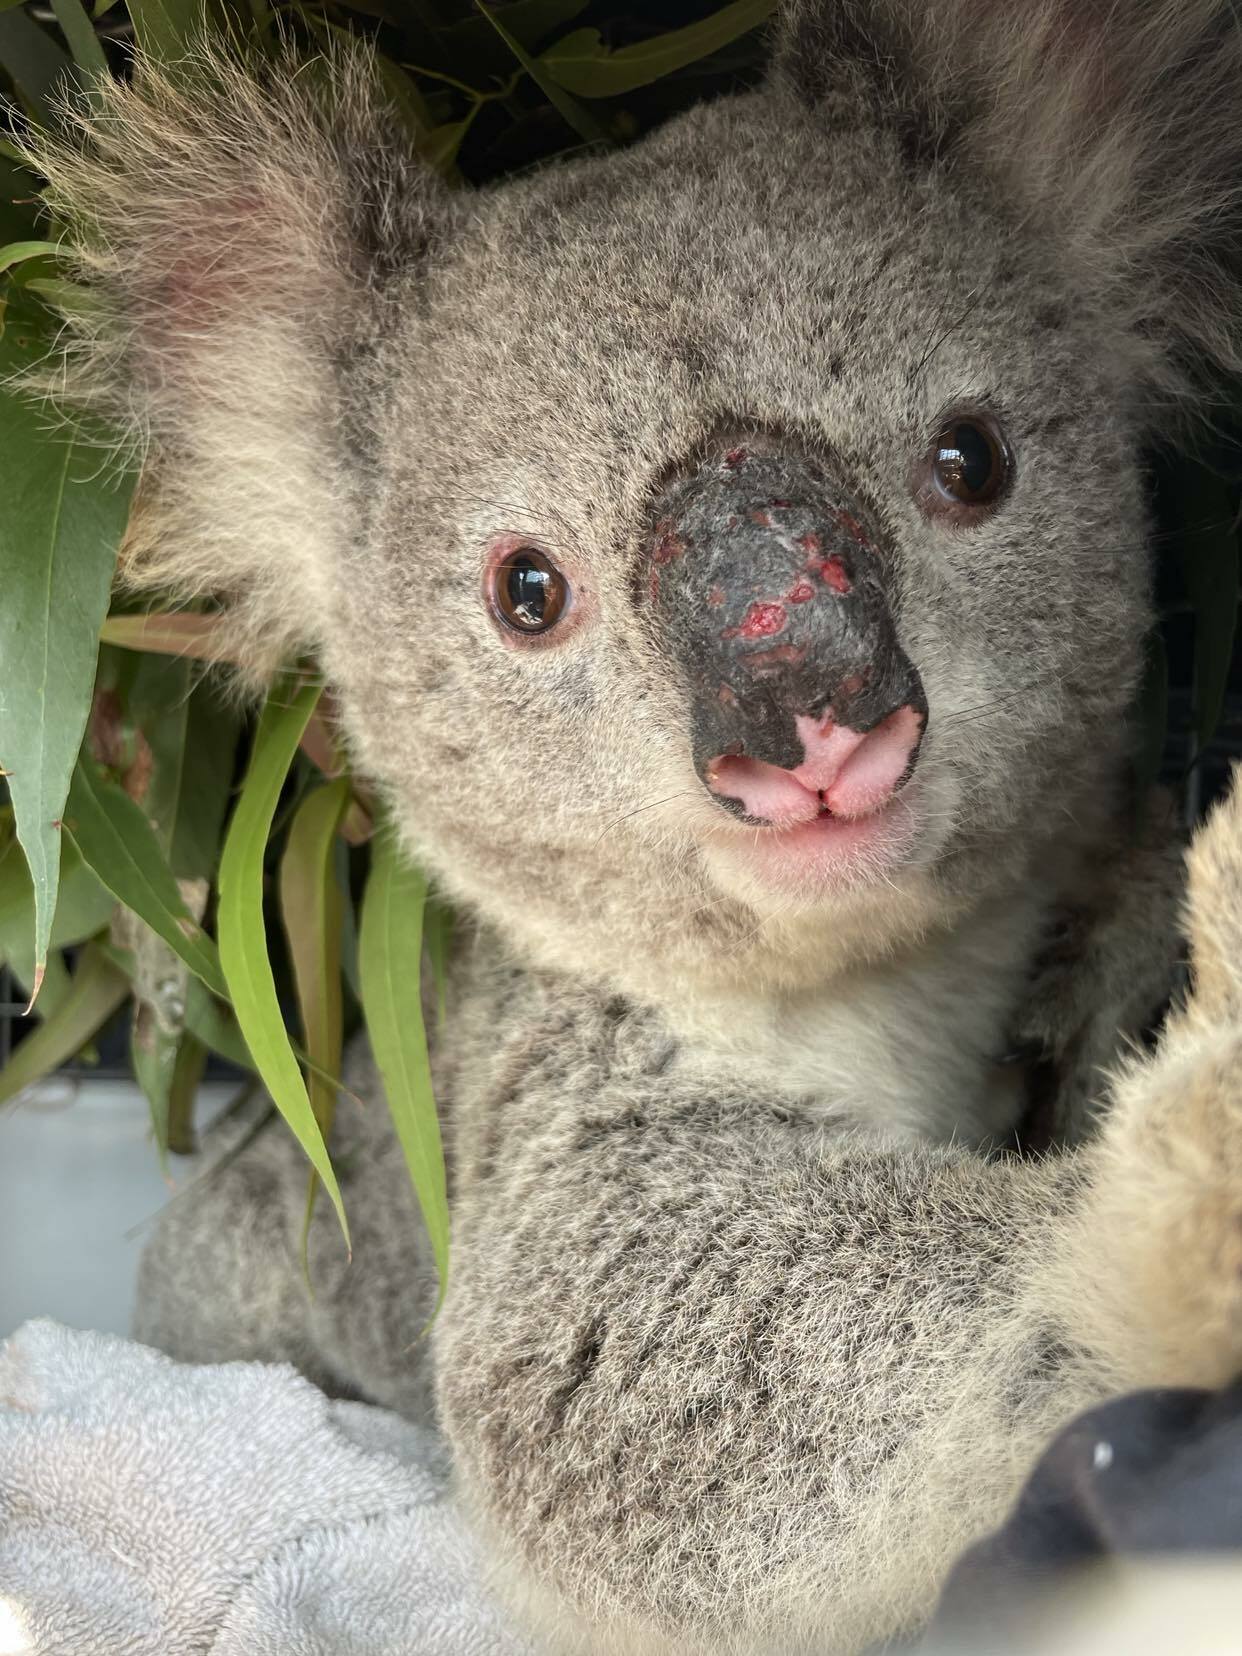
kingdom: Animalia
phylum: Chordata
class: Mammalia
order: Diprotodontia
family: Phascolarctidae
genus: Phascolarctos
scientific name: Phascolarctos cinereus
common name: Koala
